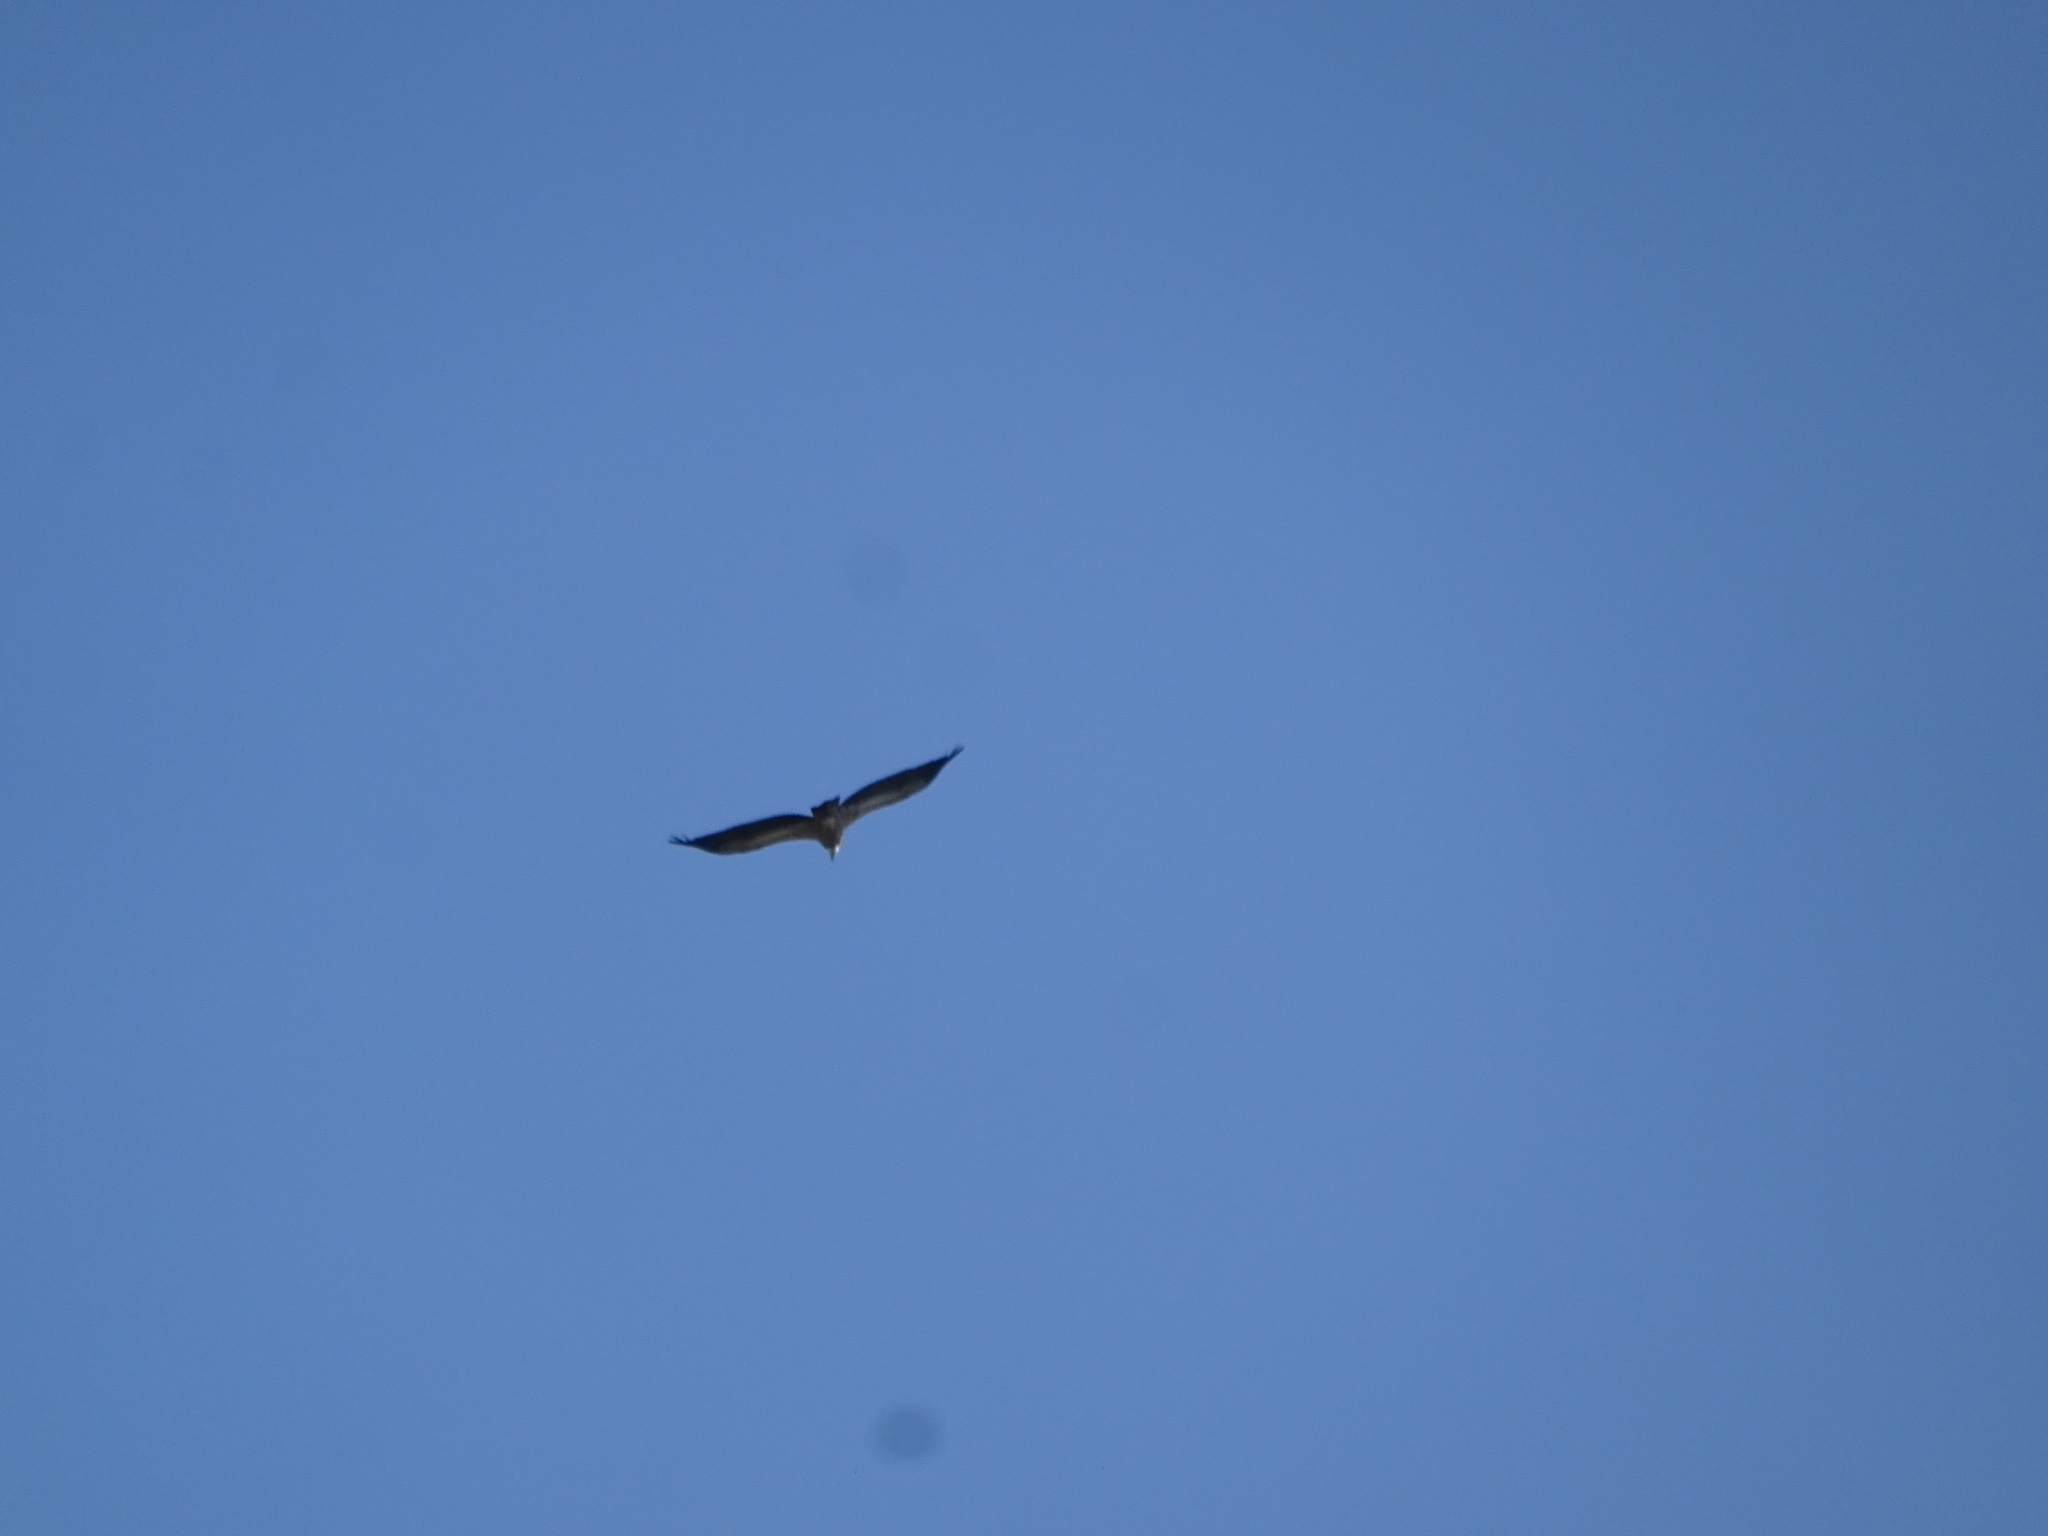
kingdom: Animalia
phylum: Chordata
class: Aves
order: Accipitriformes
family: Accipitridae
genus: Gyps
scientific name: Gyps fulvus
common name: Griffon vulture
